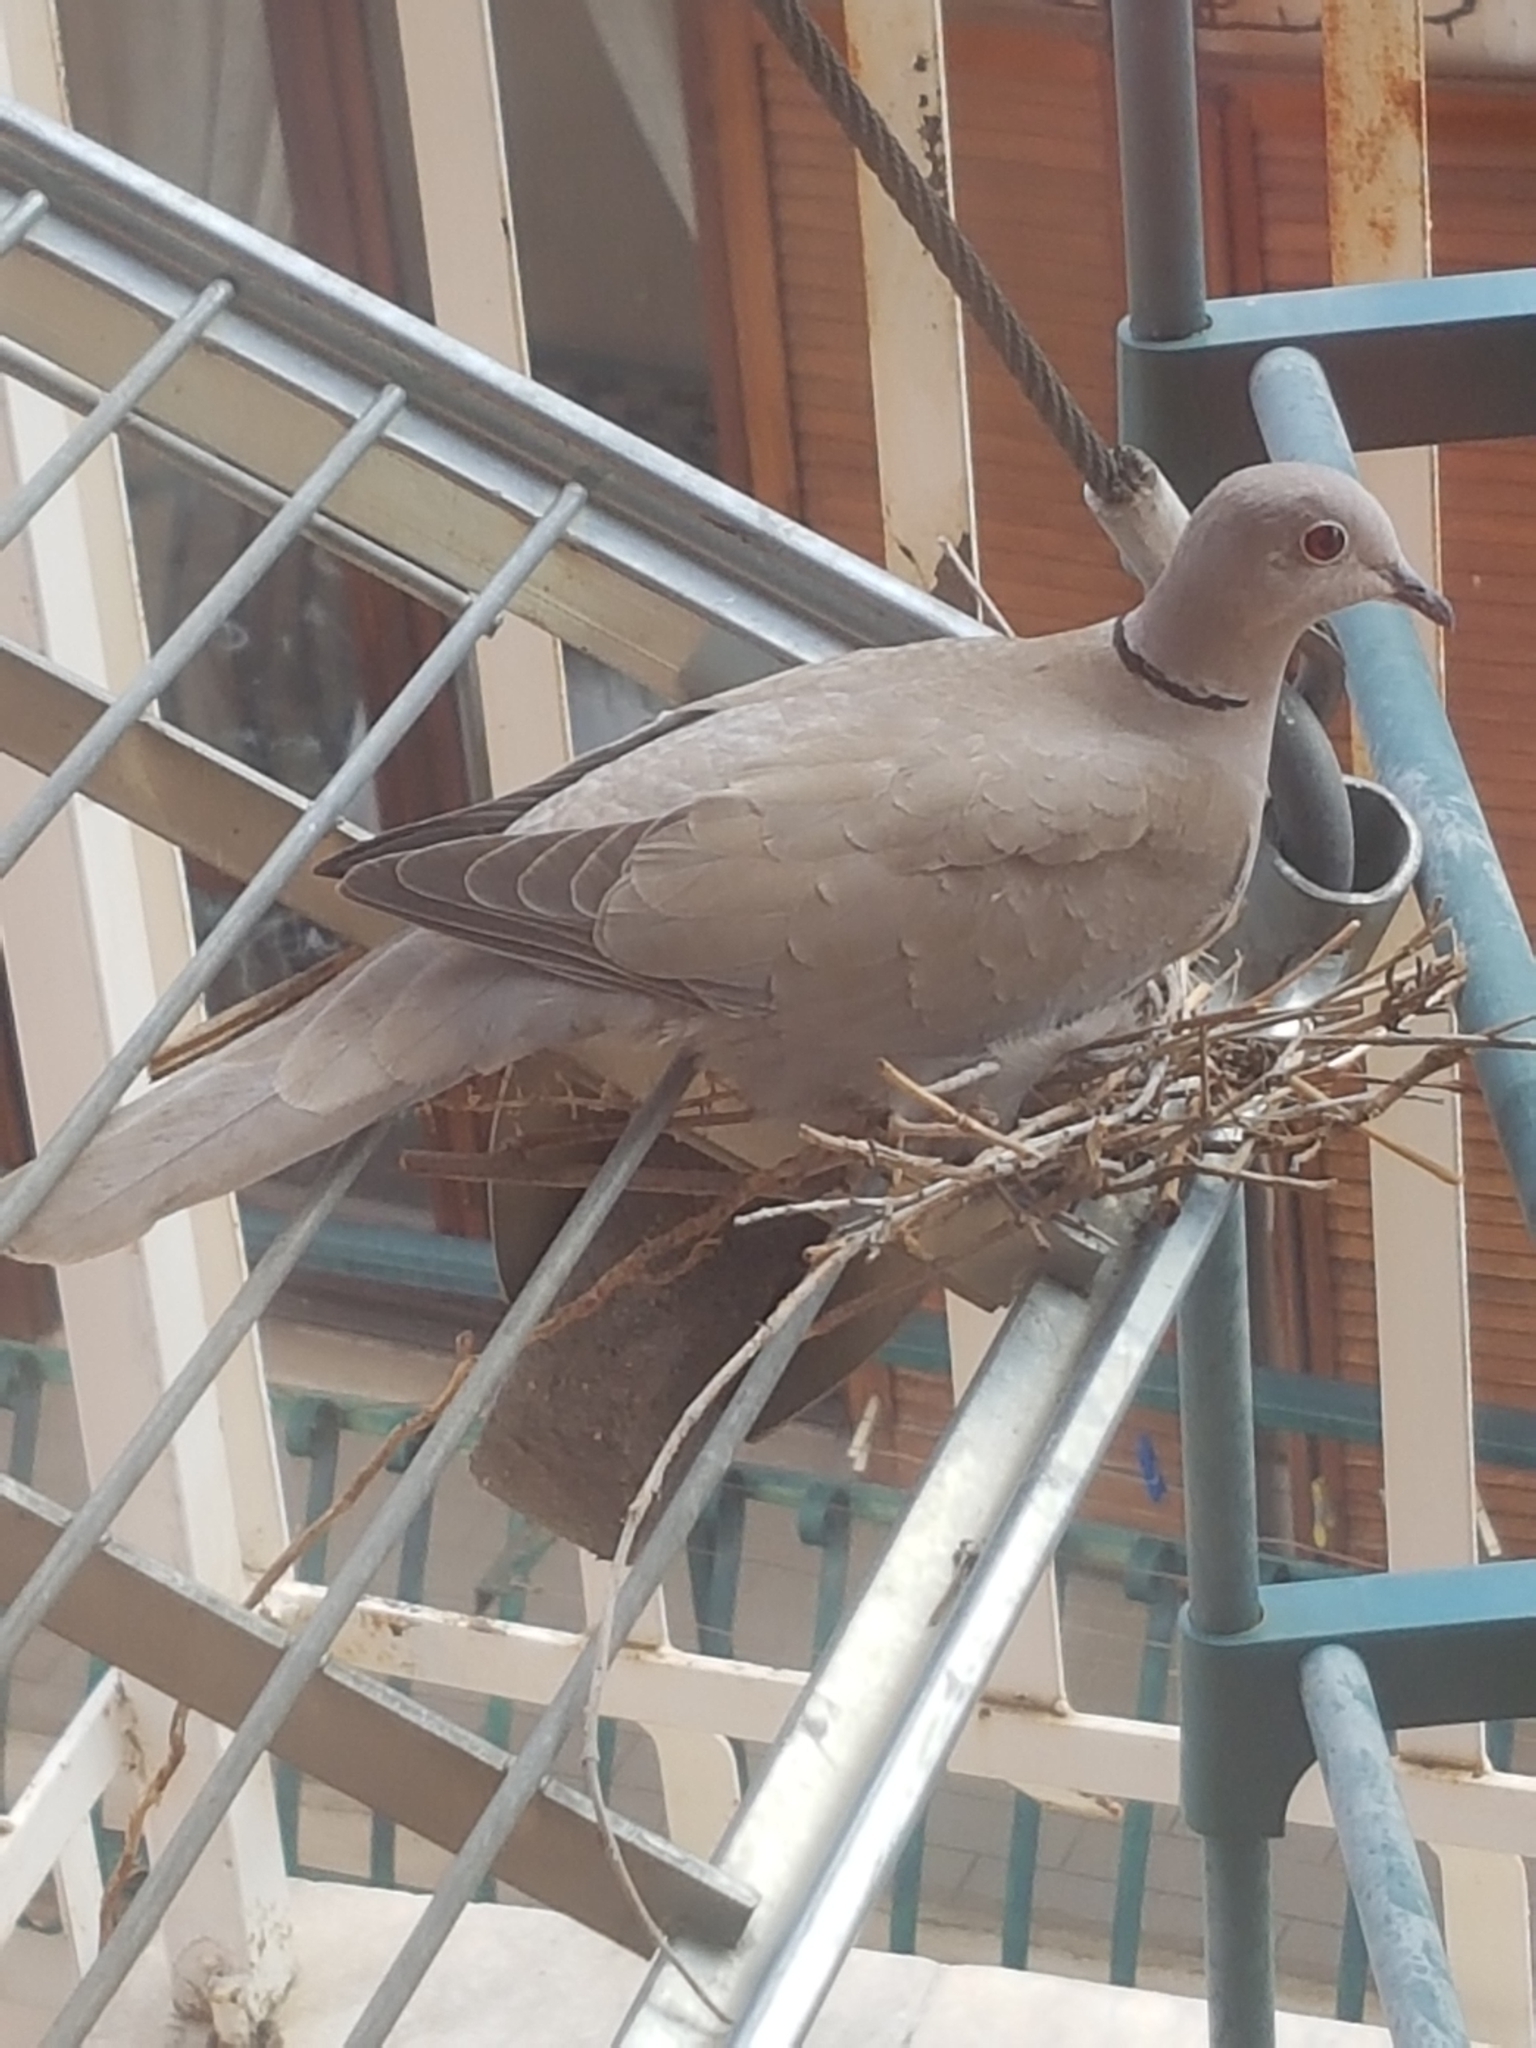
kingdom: Animalia
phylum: Chordata
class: Aves
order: Columbiformes
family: Columbidae
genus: Streptopelia
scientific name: Streptopelia decaocto
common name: Eurasian collared dove
